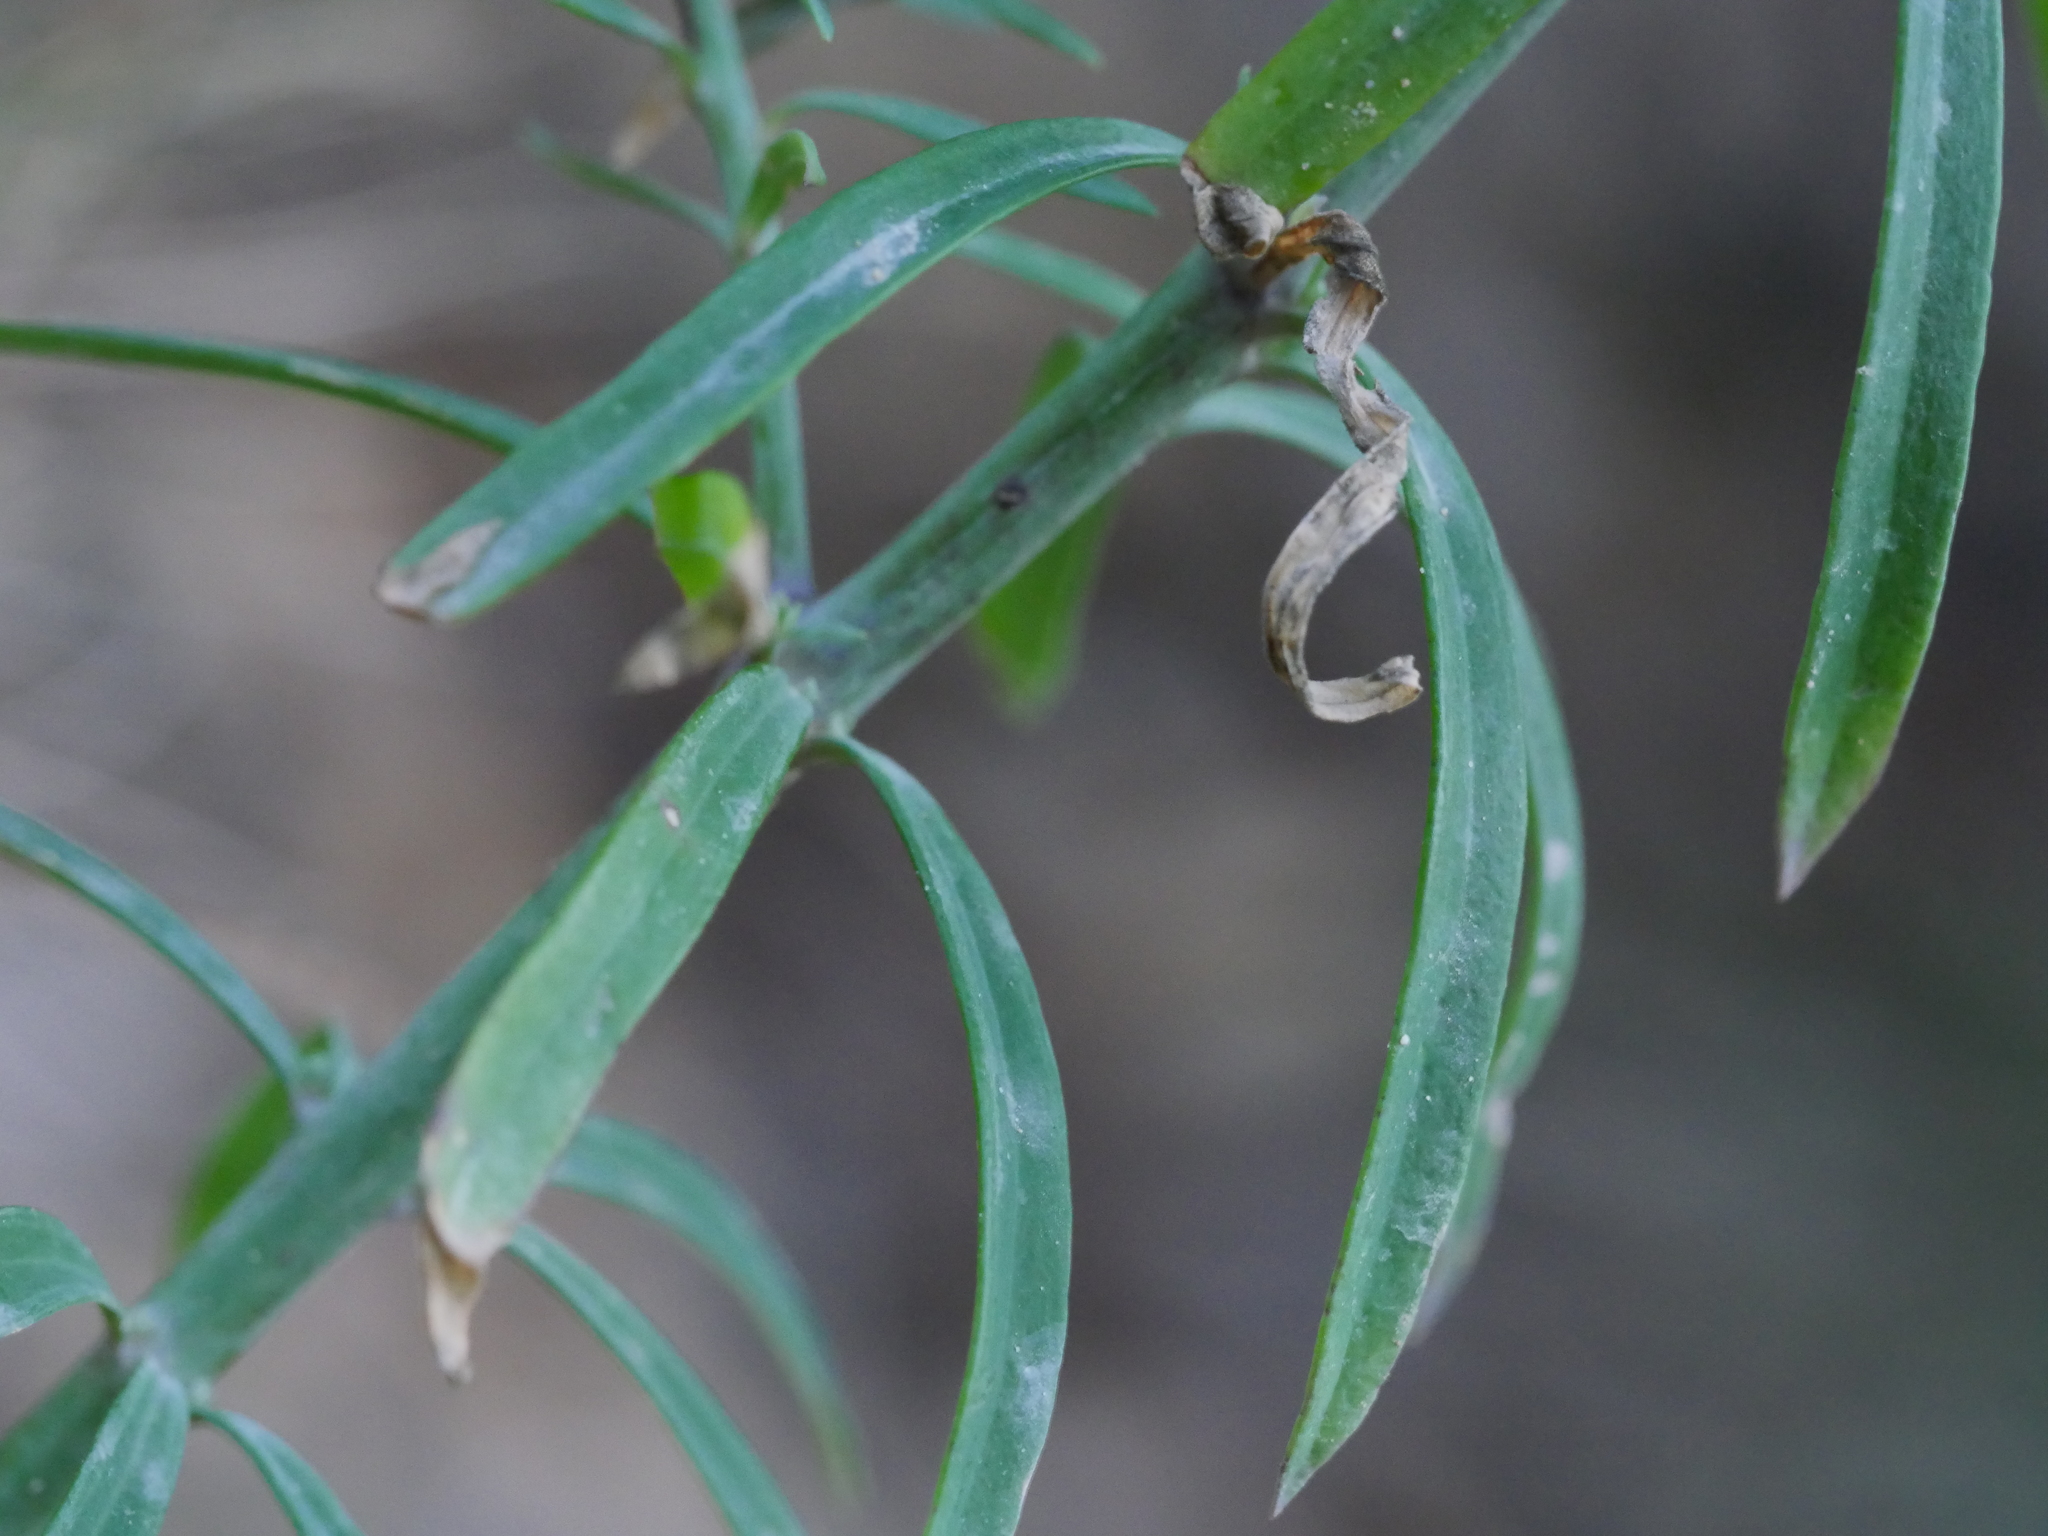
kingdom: Plantae
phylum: Tracheophyta
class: Magnoliopsida
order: Lamiales
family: Plantaginaceae
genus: Linaria
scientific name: Linaria purpurea
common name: Purple toadflax
